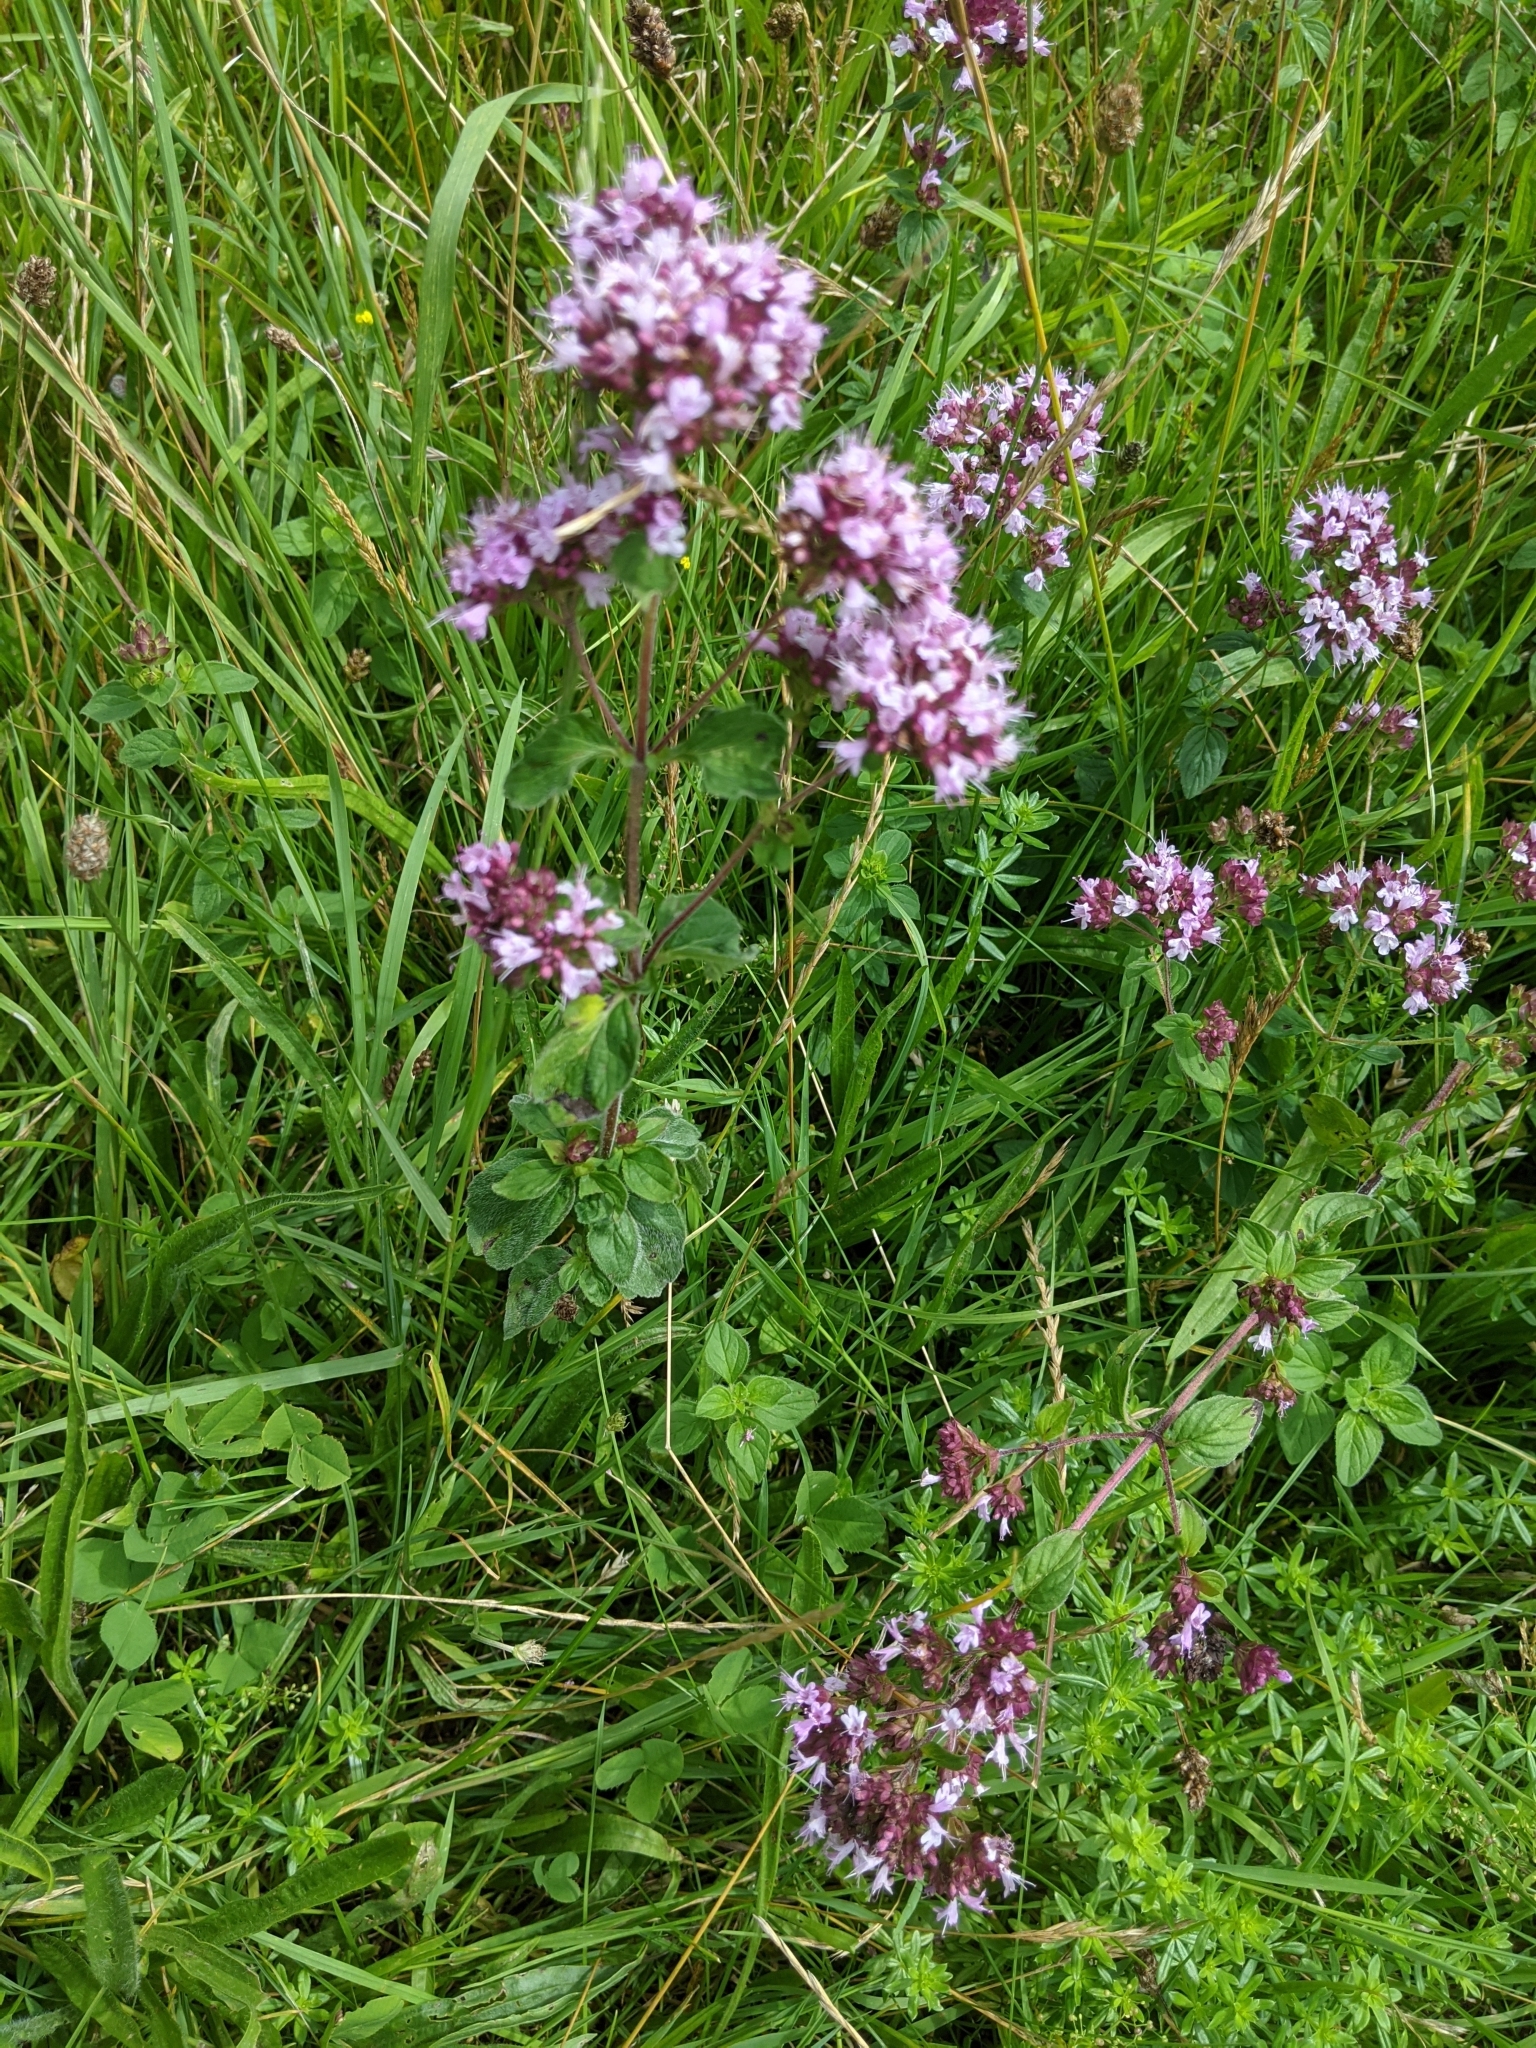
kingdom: Plantae
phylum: Tracheophyta
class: Magnoliopsida
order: Lamiales
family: Lamiaceae
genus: Origanum
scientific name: Origanum vulgare
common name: Wild marjoram
